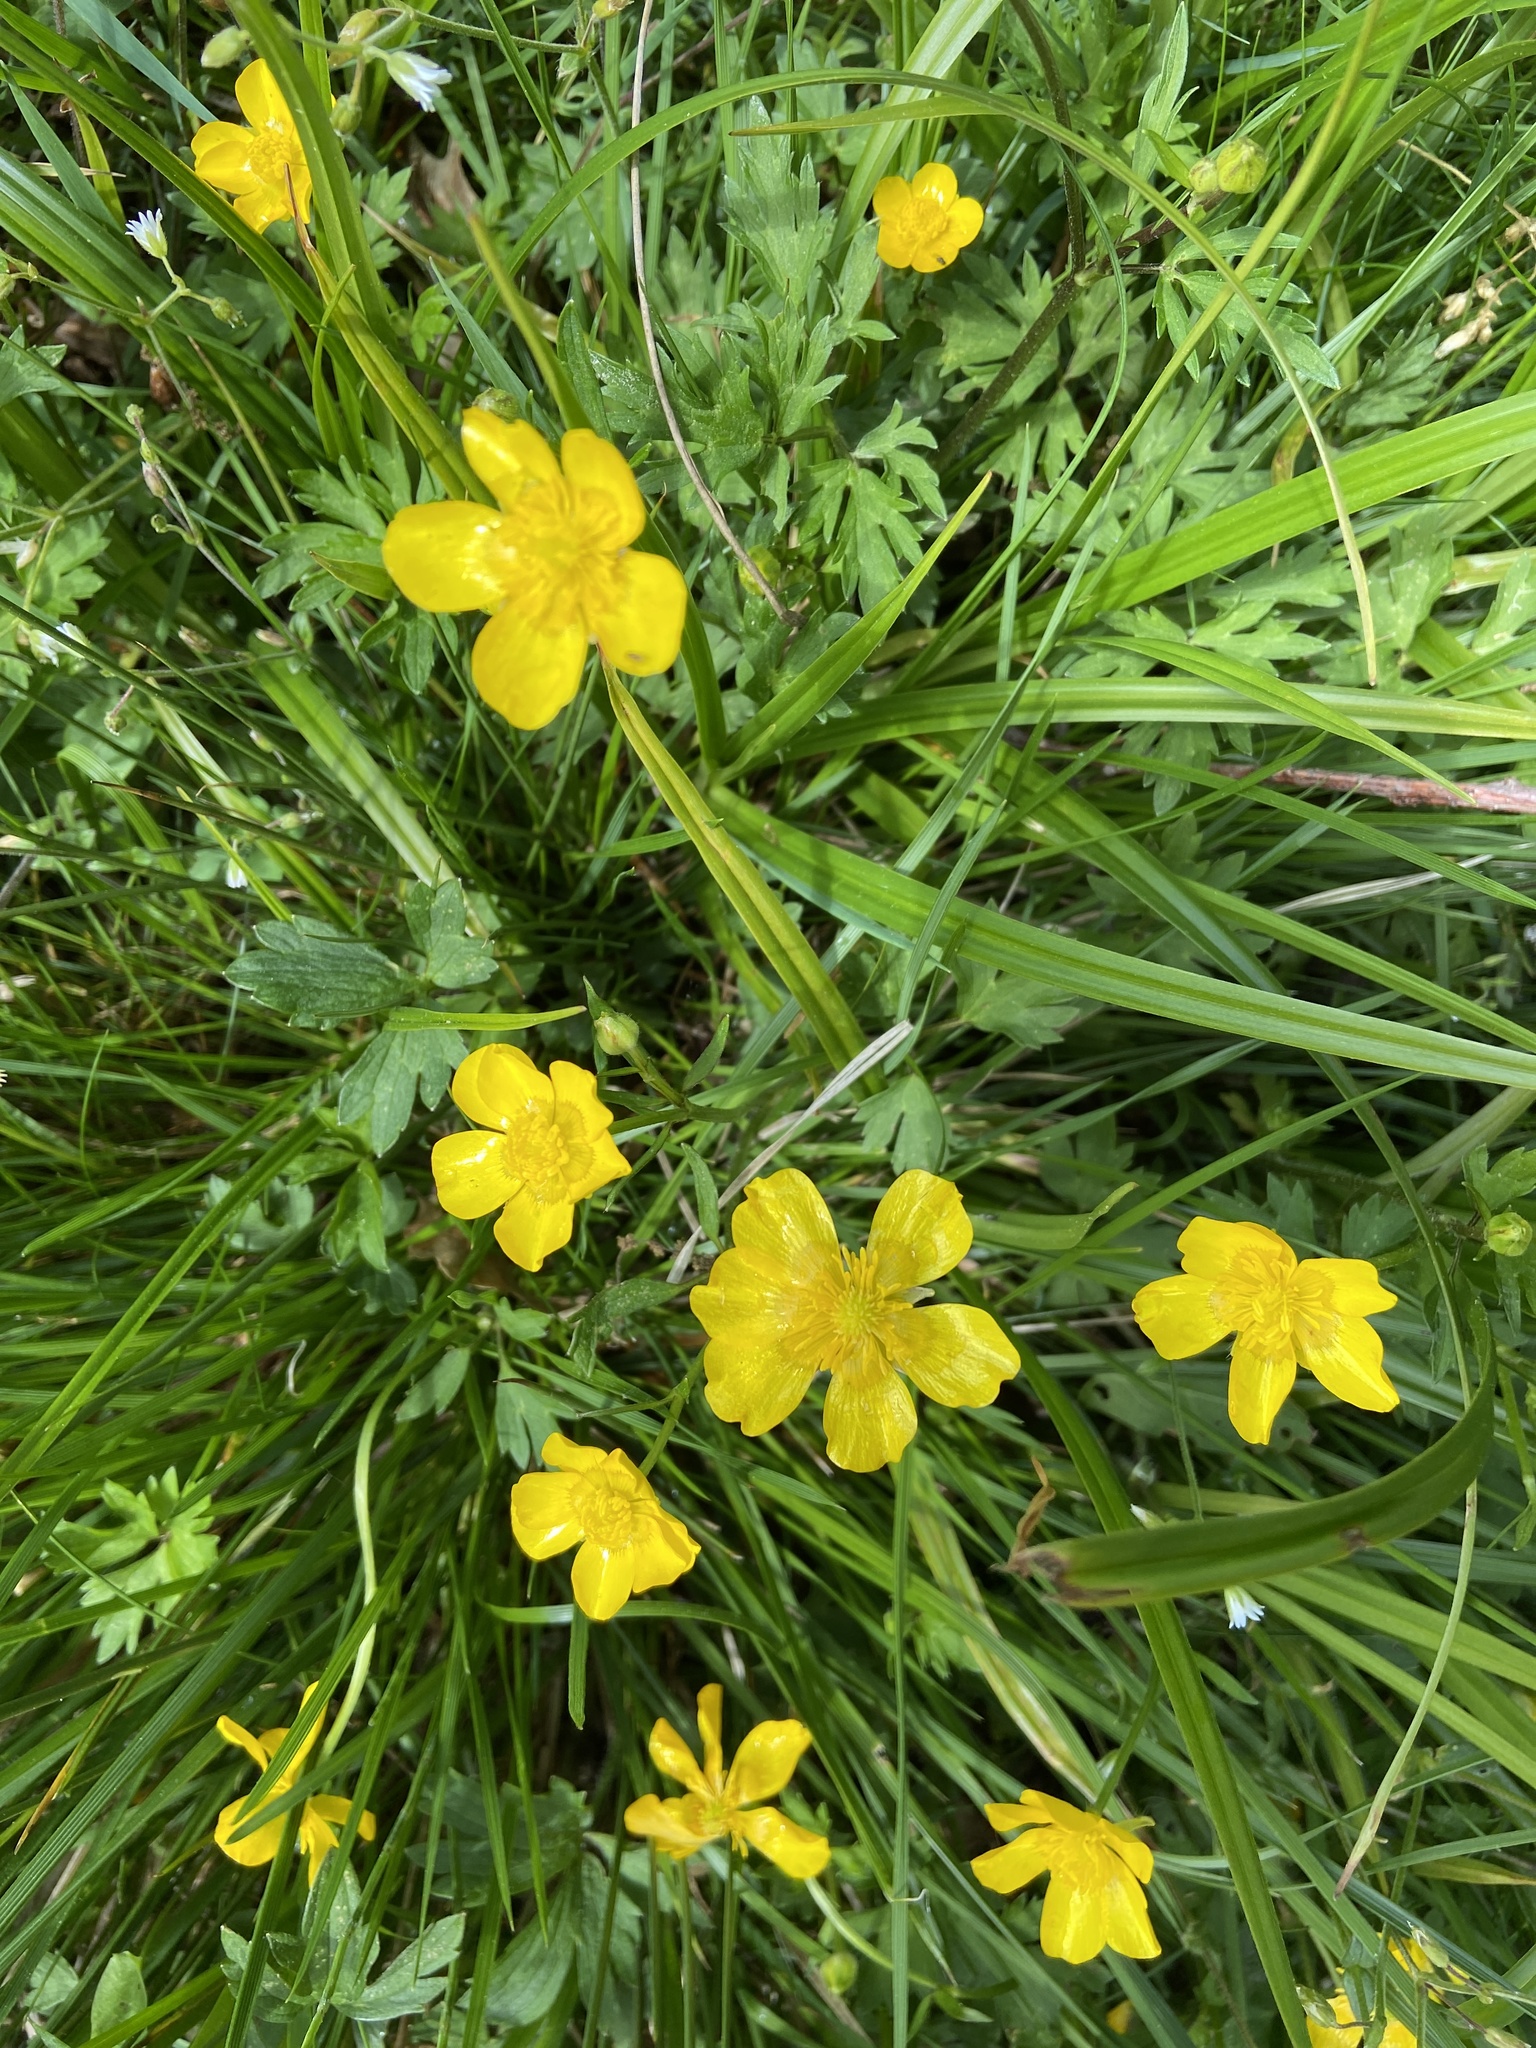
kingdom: Plantae
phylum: Tracheophyta
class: Magnoliopsida
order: Ranunculales
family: Ranunculaceae
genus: Ranunculus
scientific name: Ranunculus repens
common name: Creeping buttercup
